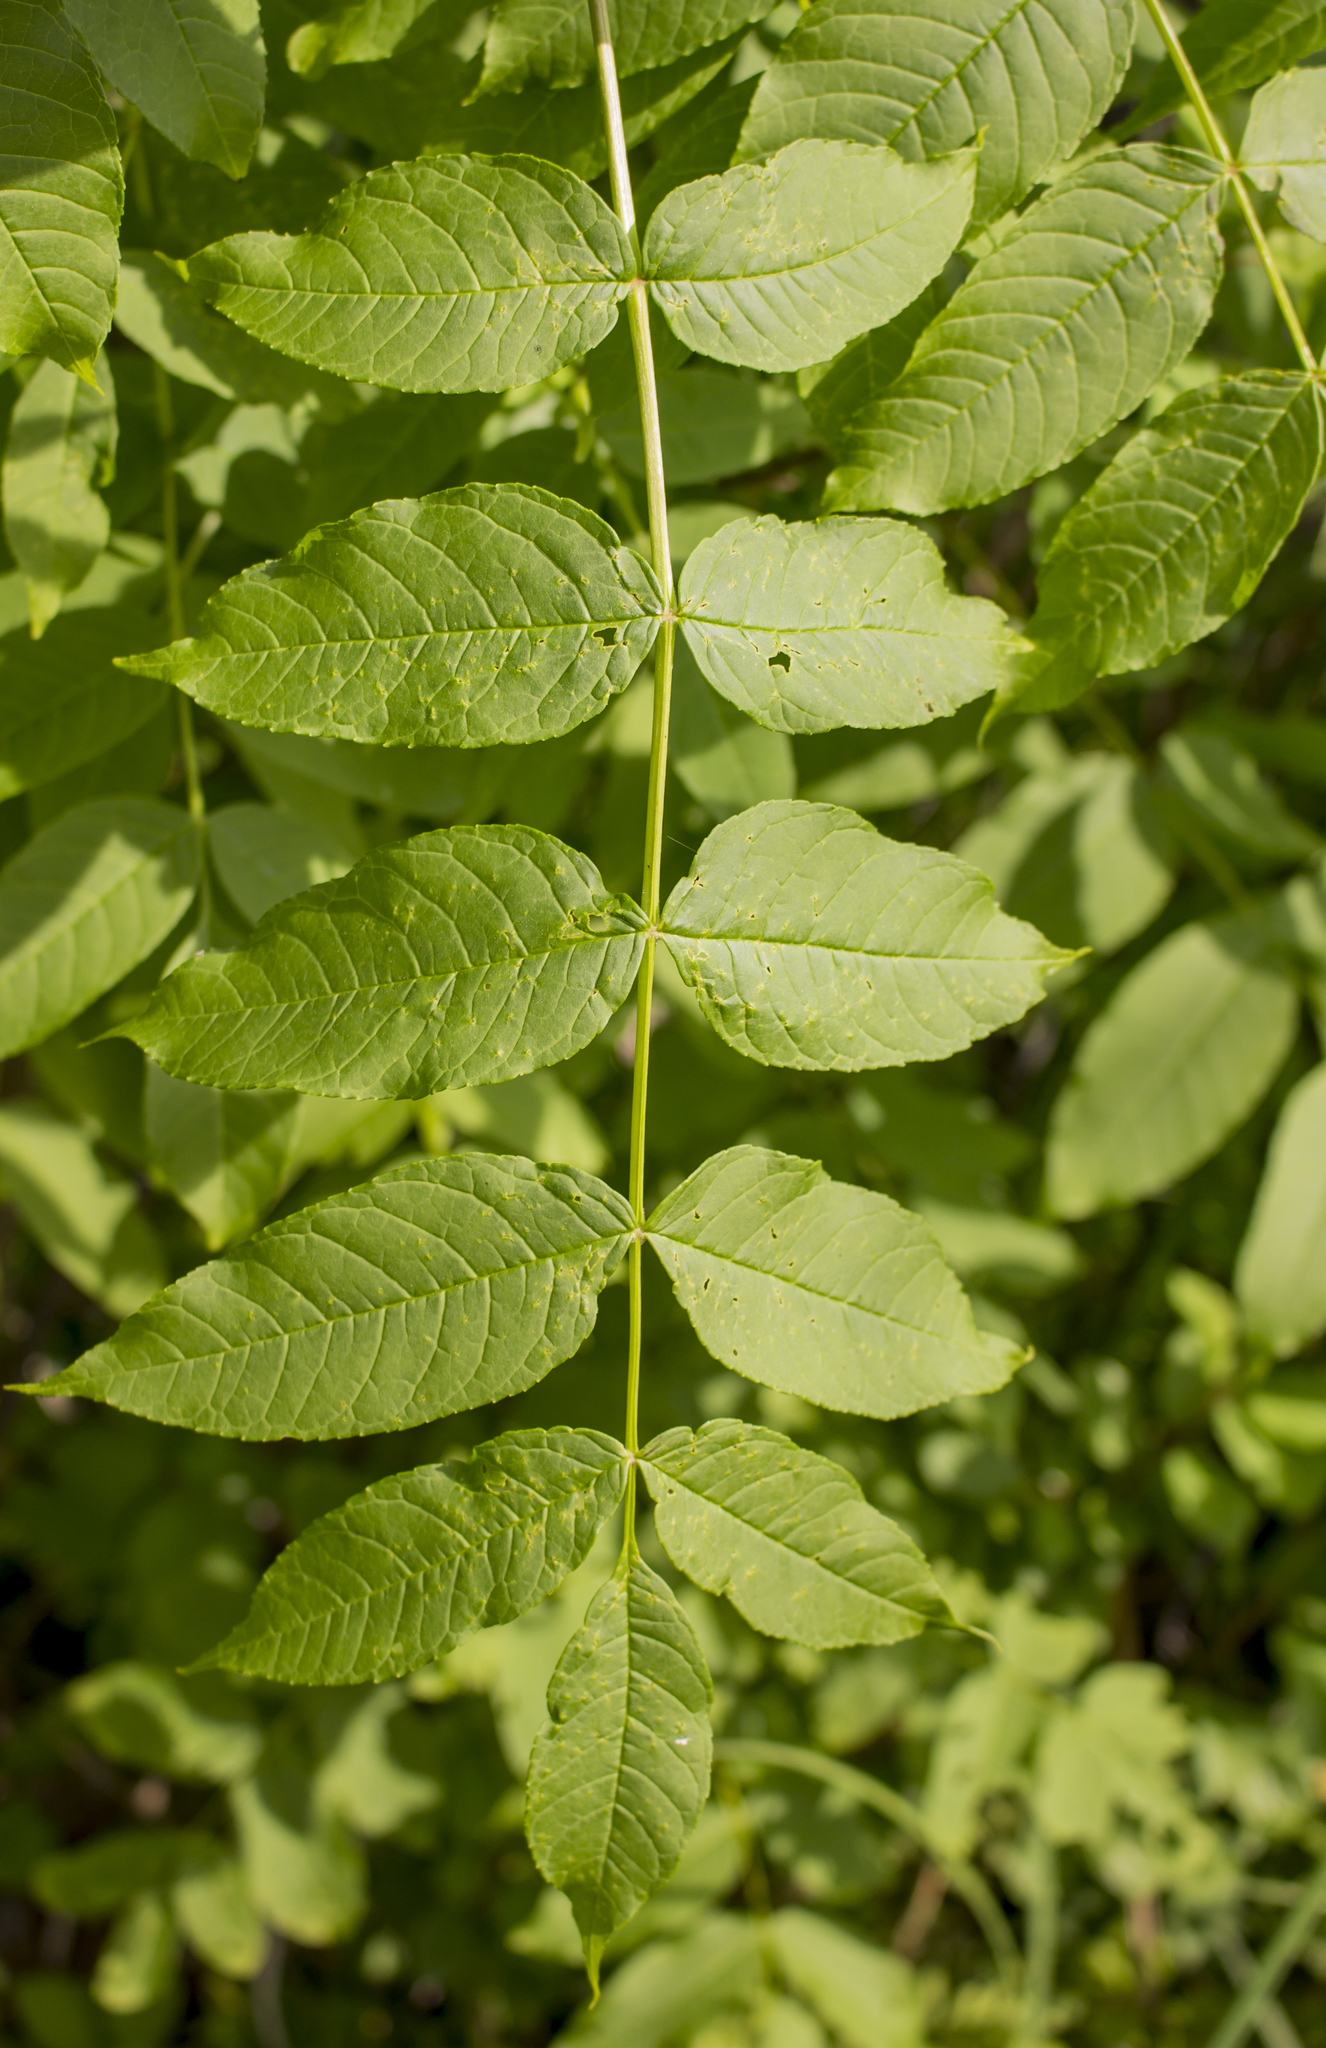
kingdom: Plantae
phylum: Tracheophyta
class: Magnoliopsida
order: Lamiales
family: Oleaceae
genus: Fraxinus
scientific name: Fraxinus nigra
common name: Black ash
